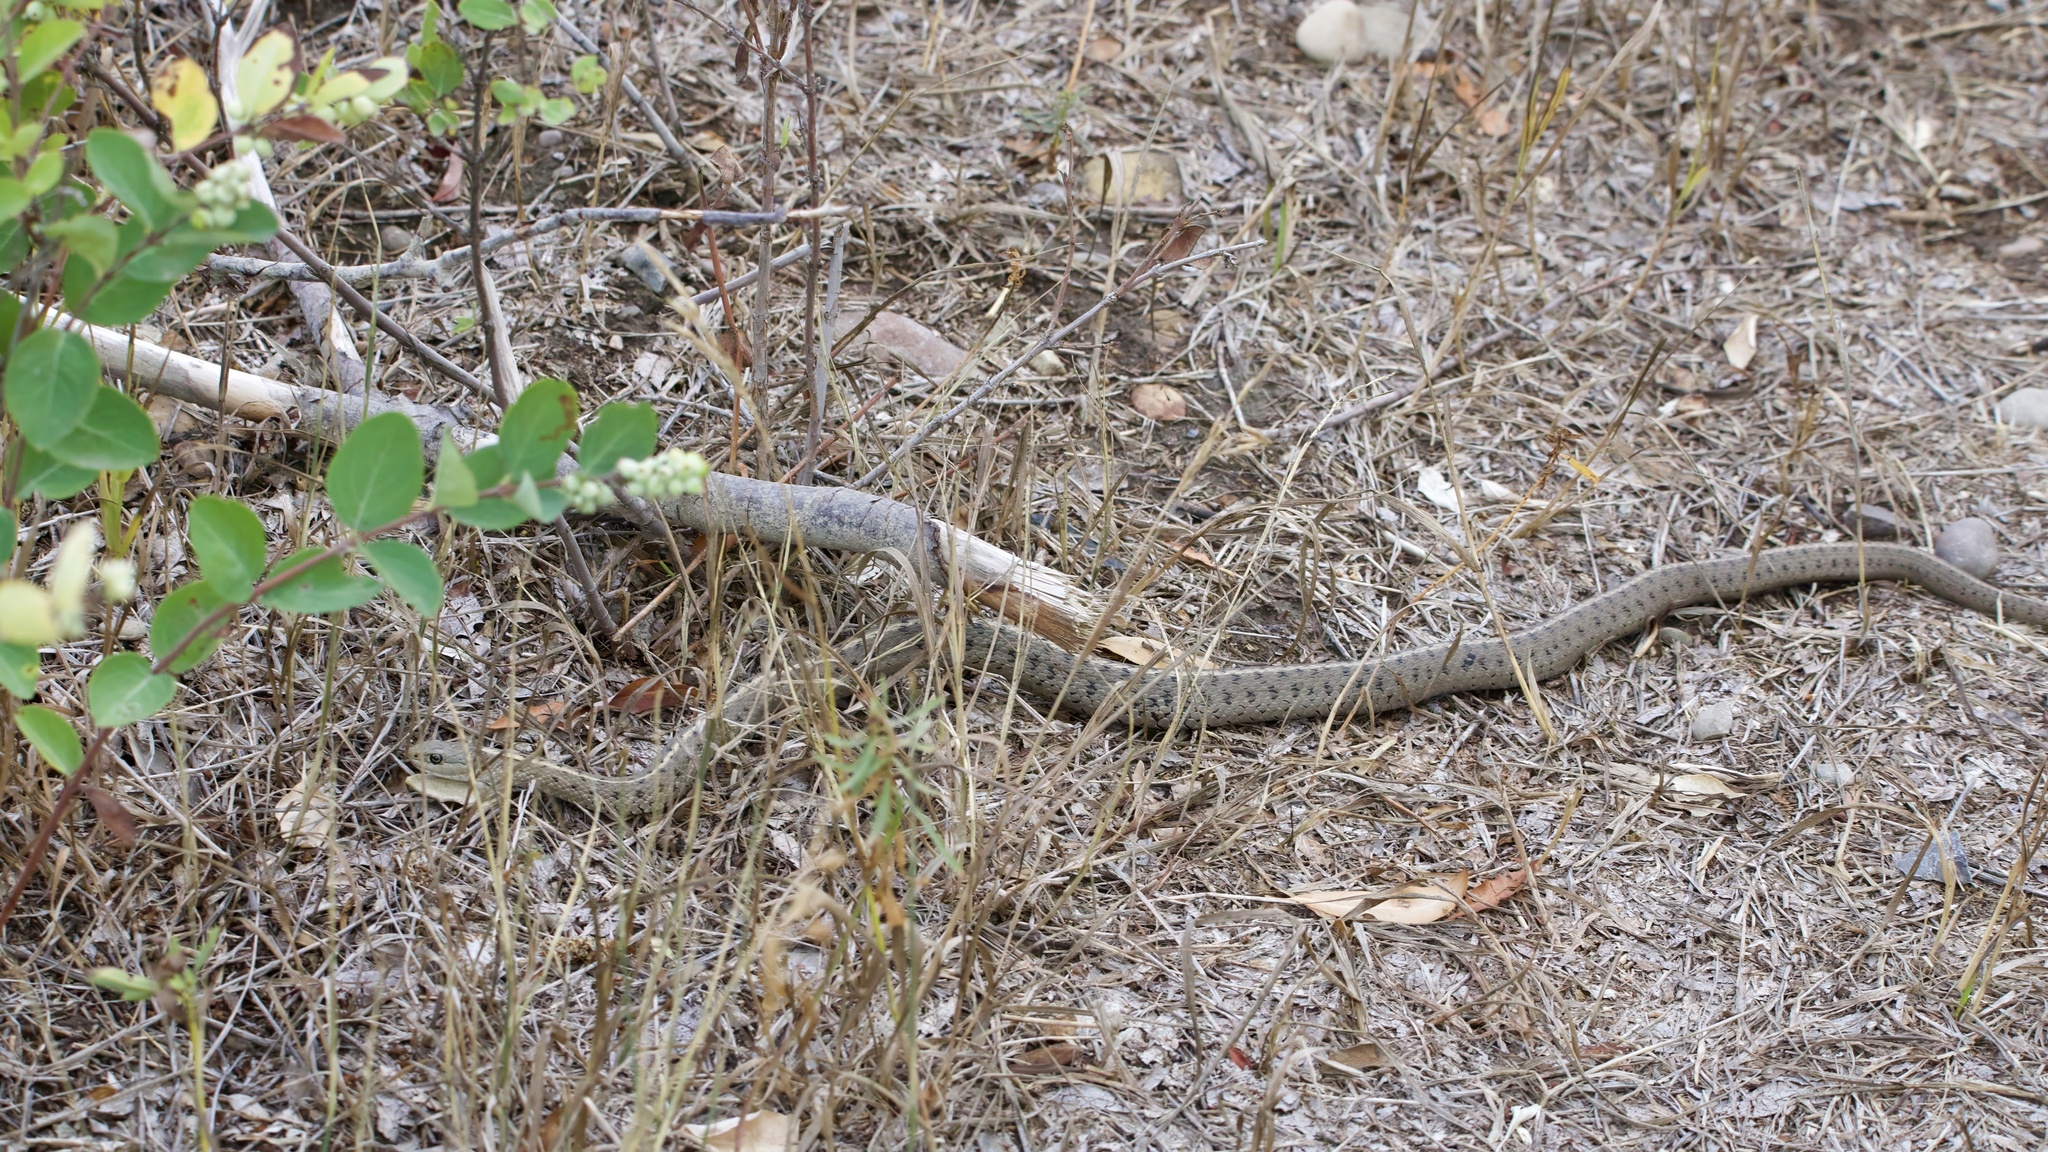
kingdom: Animalia
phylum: Chordata
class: Squamata
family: Colubridae
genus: Thamnophis
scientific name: Thamnophis elegans
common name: Western terrestrial garter snake
